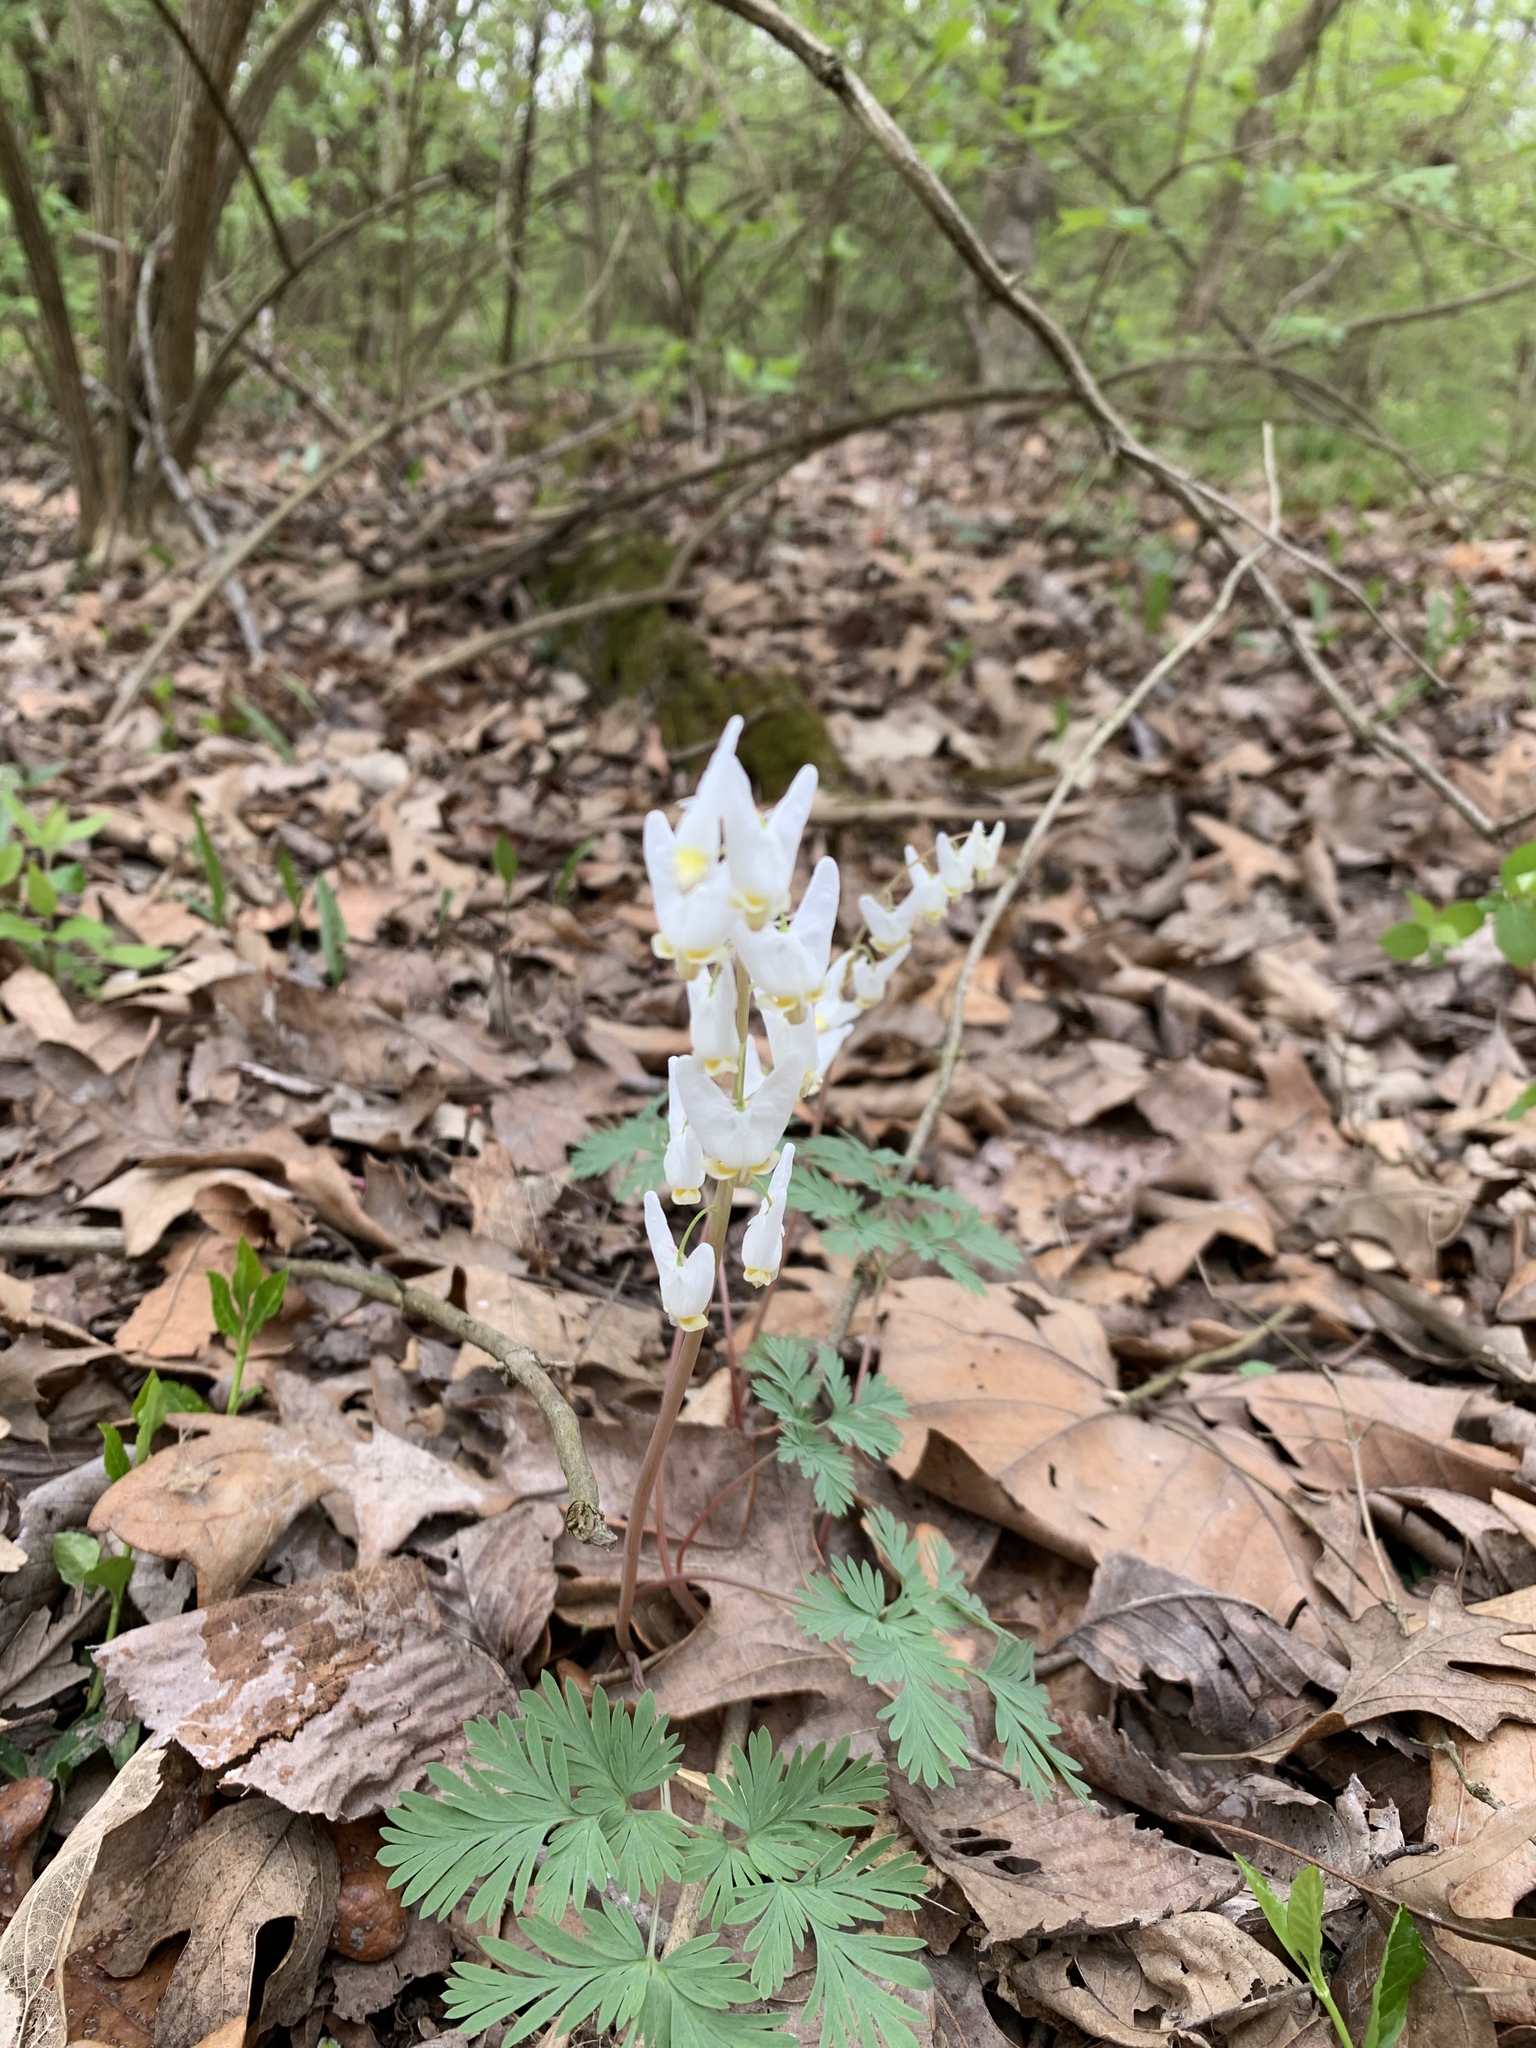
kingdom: Plantae
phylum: Tracheophyta
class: Magnoliopsida
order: Ranunculales
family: Papaveraceae
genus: Dicentra
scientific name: Dicentra cucullaria
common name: Dutchman's breeches
